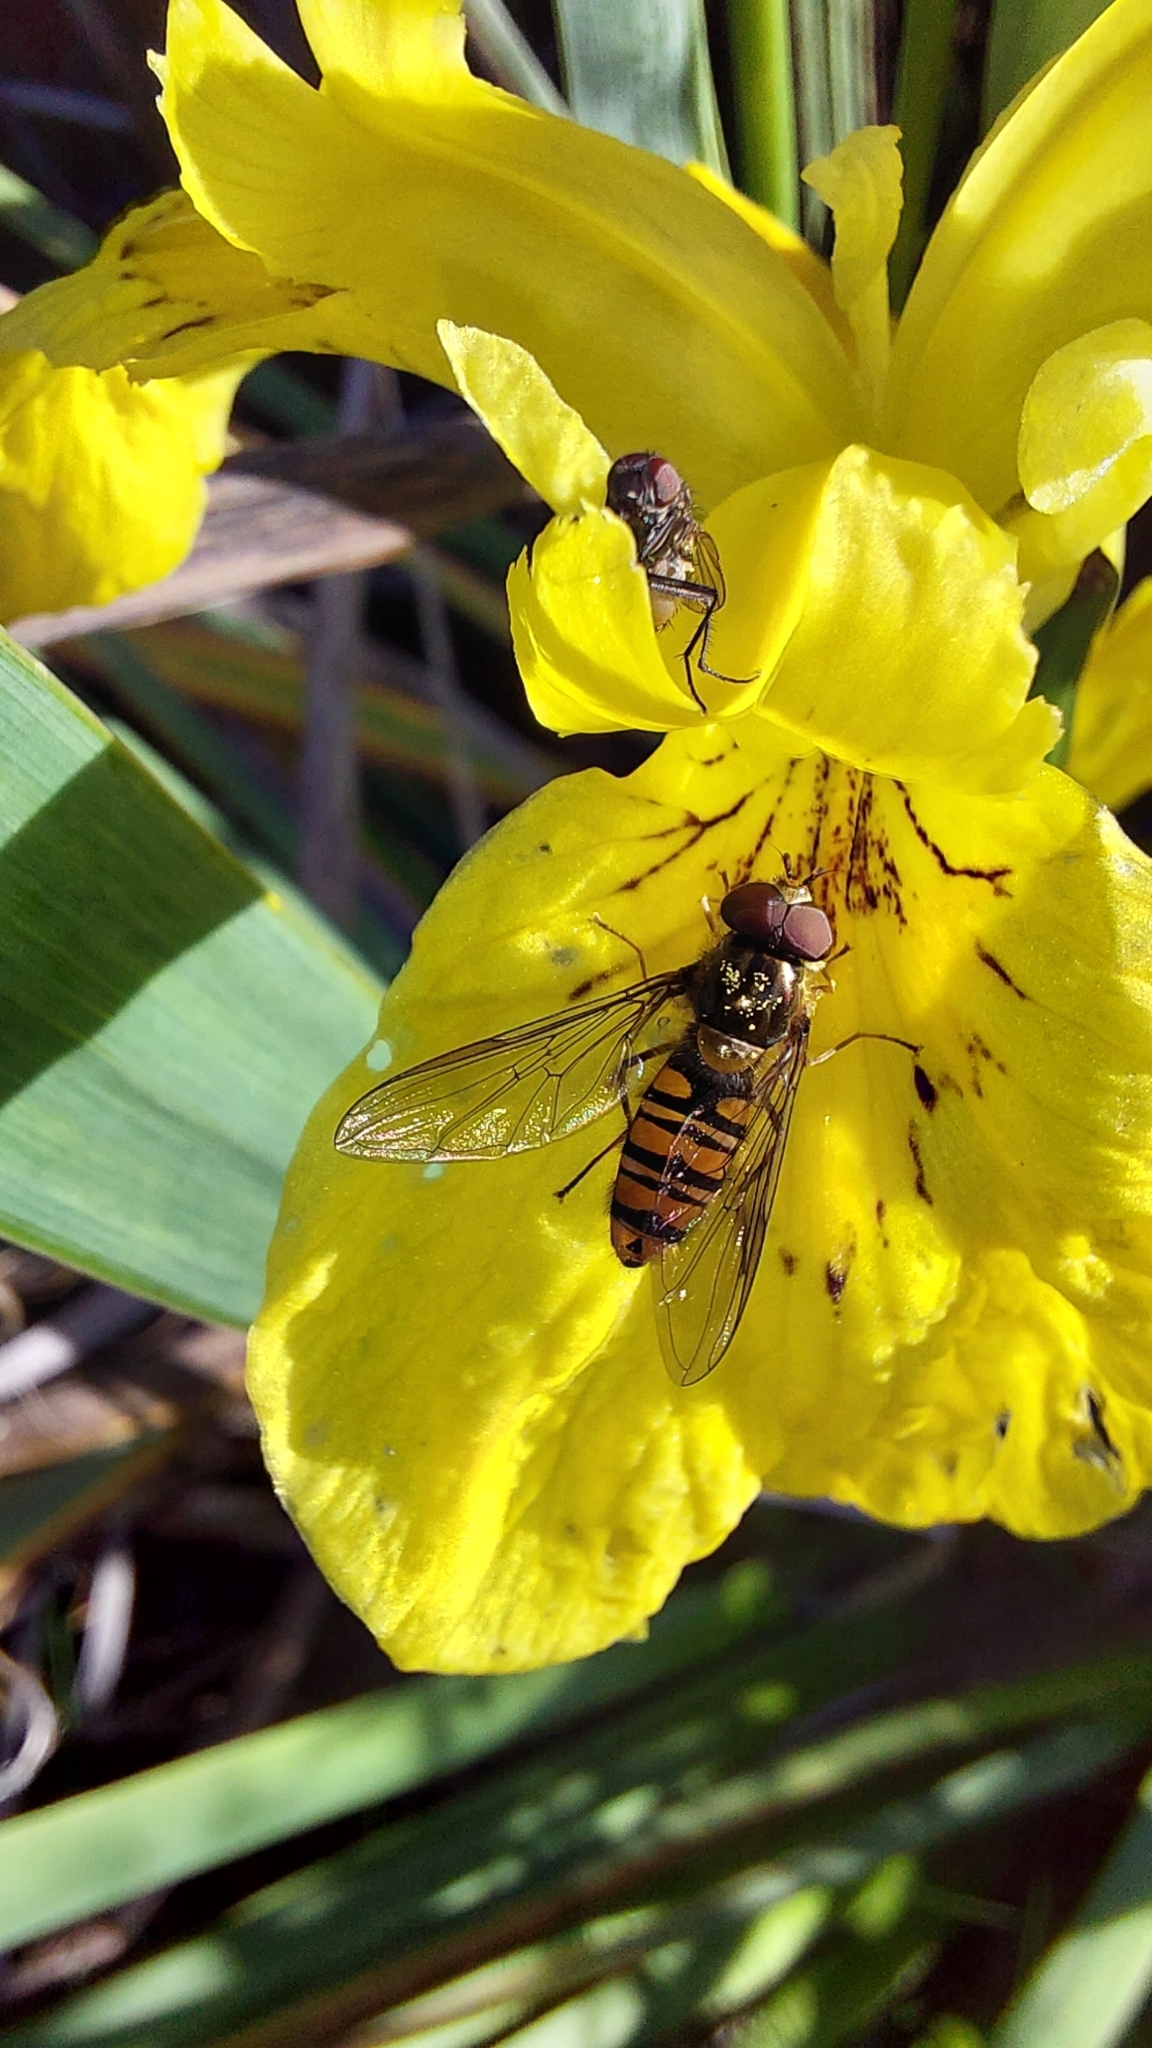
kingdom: Animalia
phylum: Arthropoda
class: Insecta
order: Diptera
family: Syrphidae
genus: Episyrphus
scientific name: Episyrphus balteatus
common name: Marmalade hoverfly
